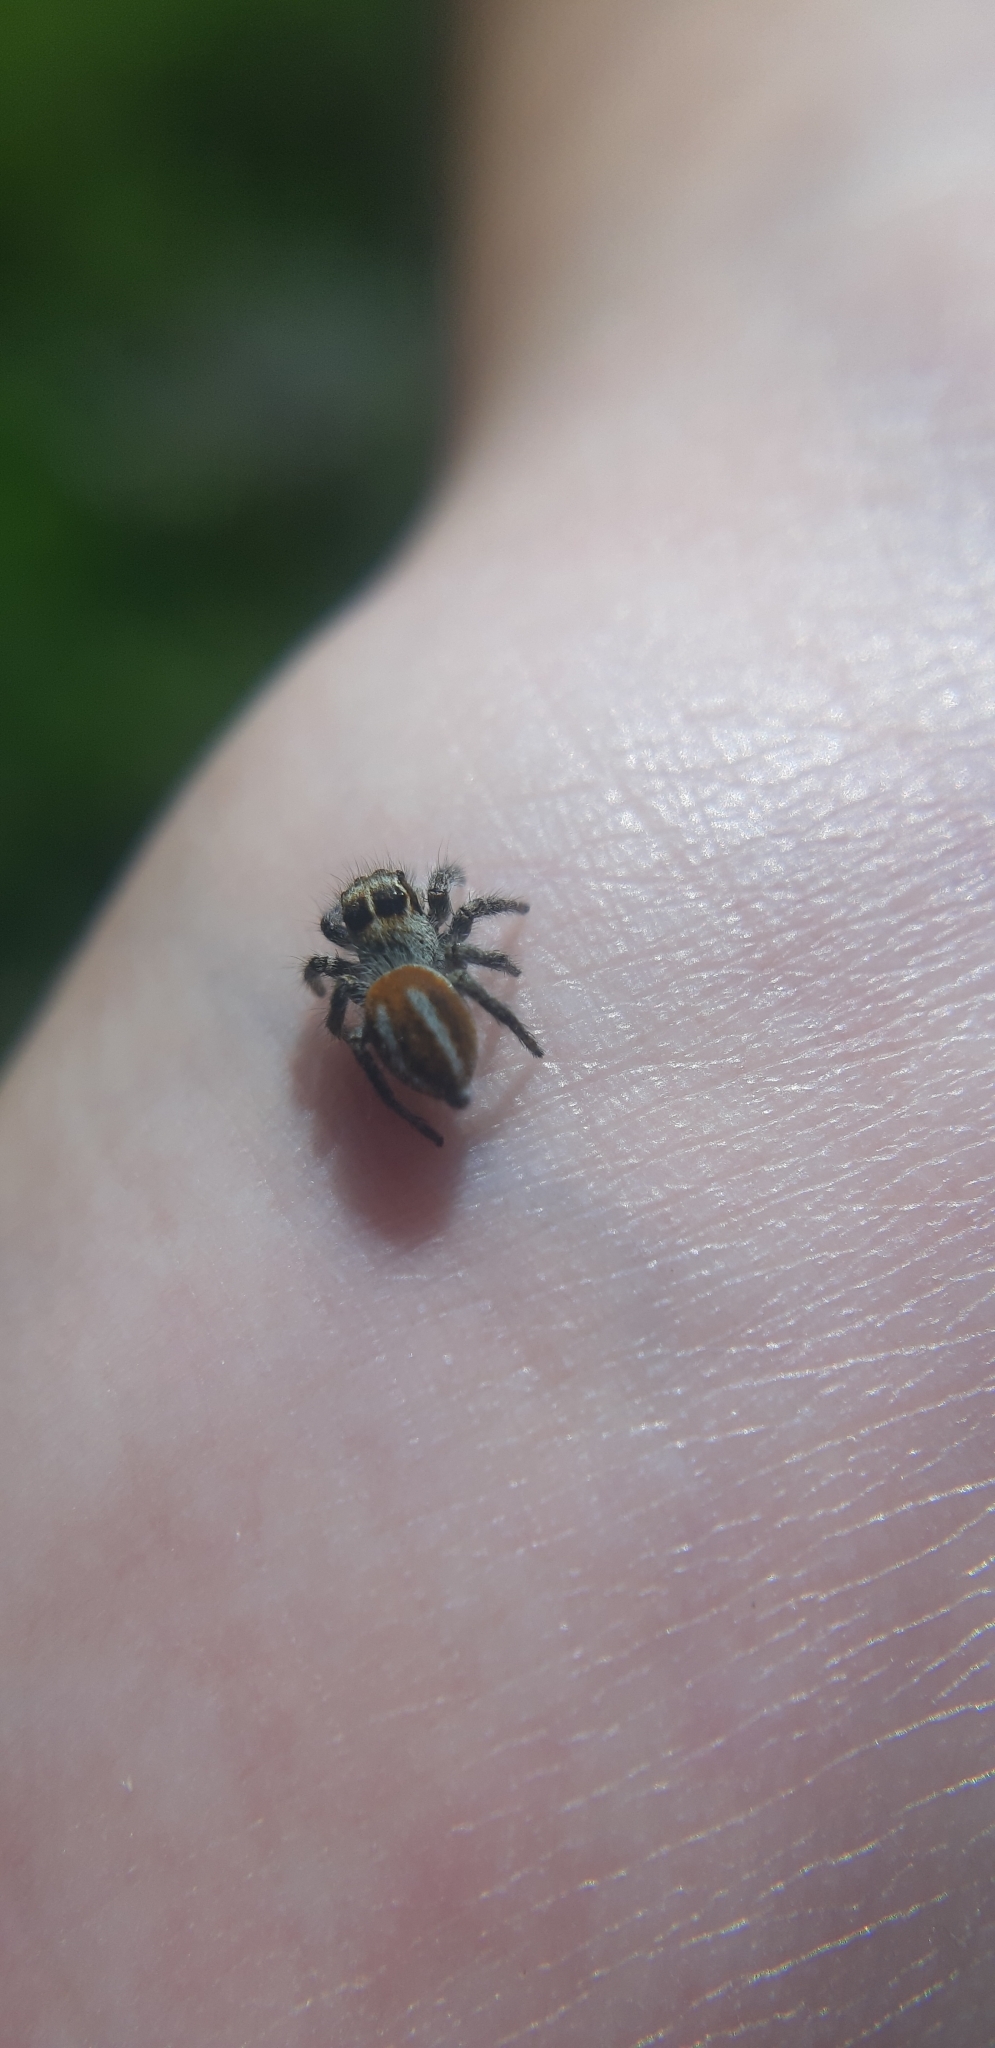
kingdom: Animalia
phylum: Arthropoda
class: Arachnida
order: Araneae
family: Salticidae
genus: Philaeus
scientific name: Philaeus chrysops
